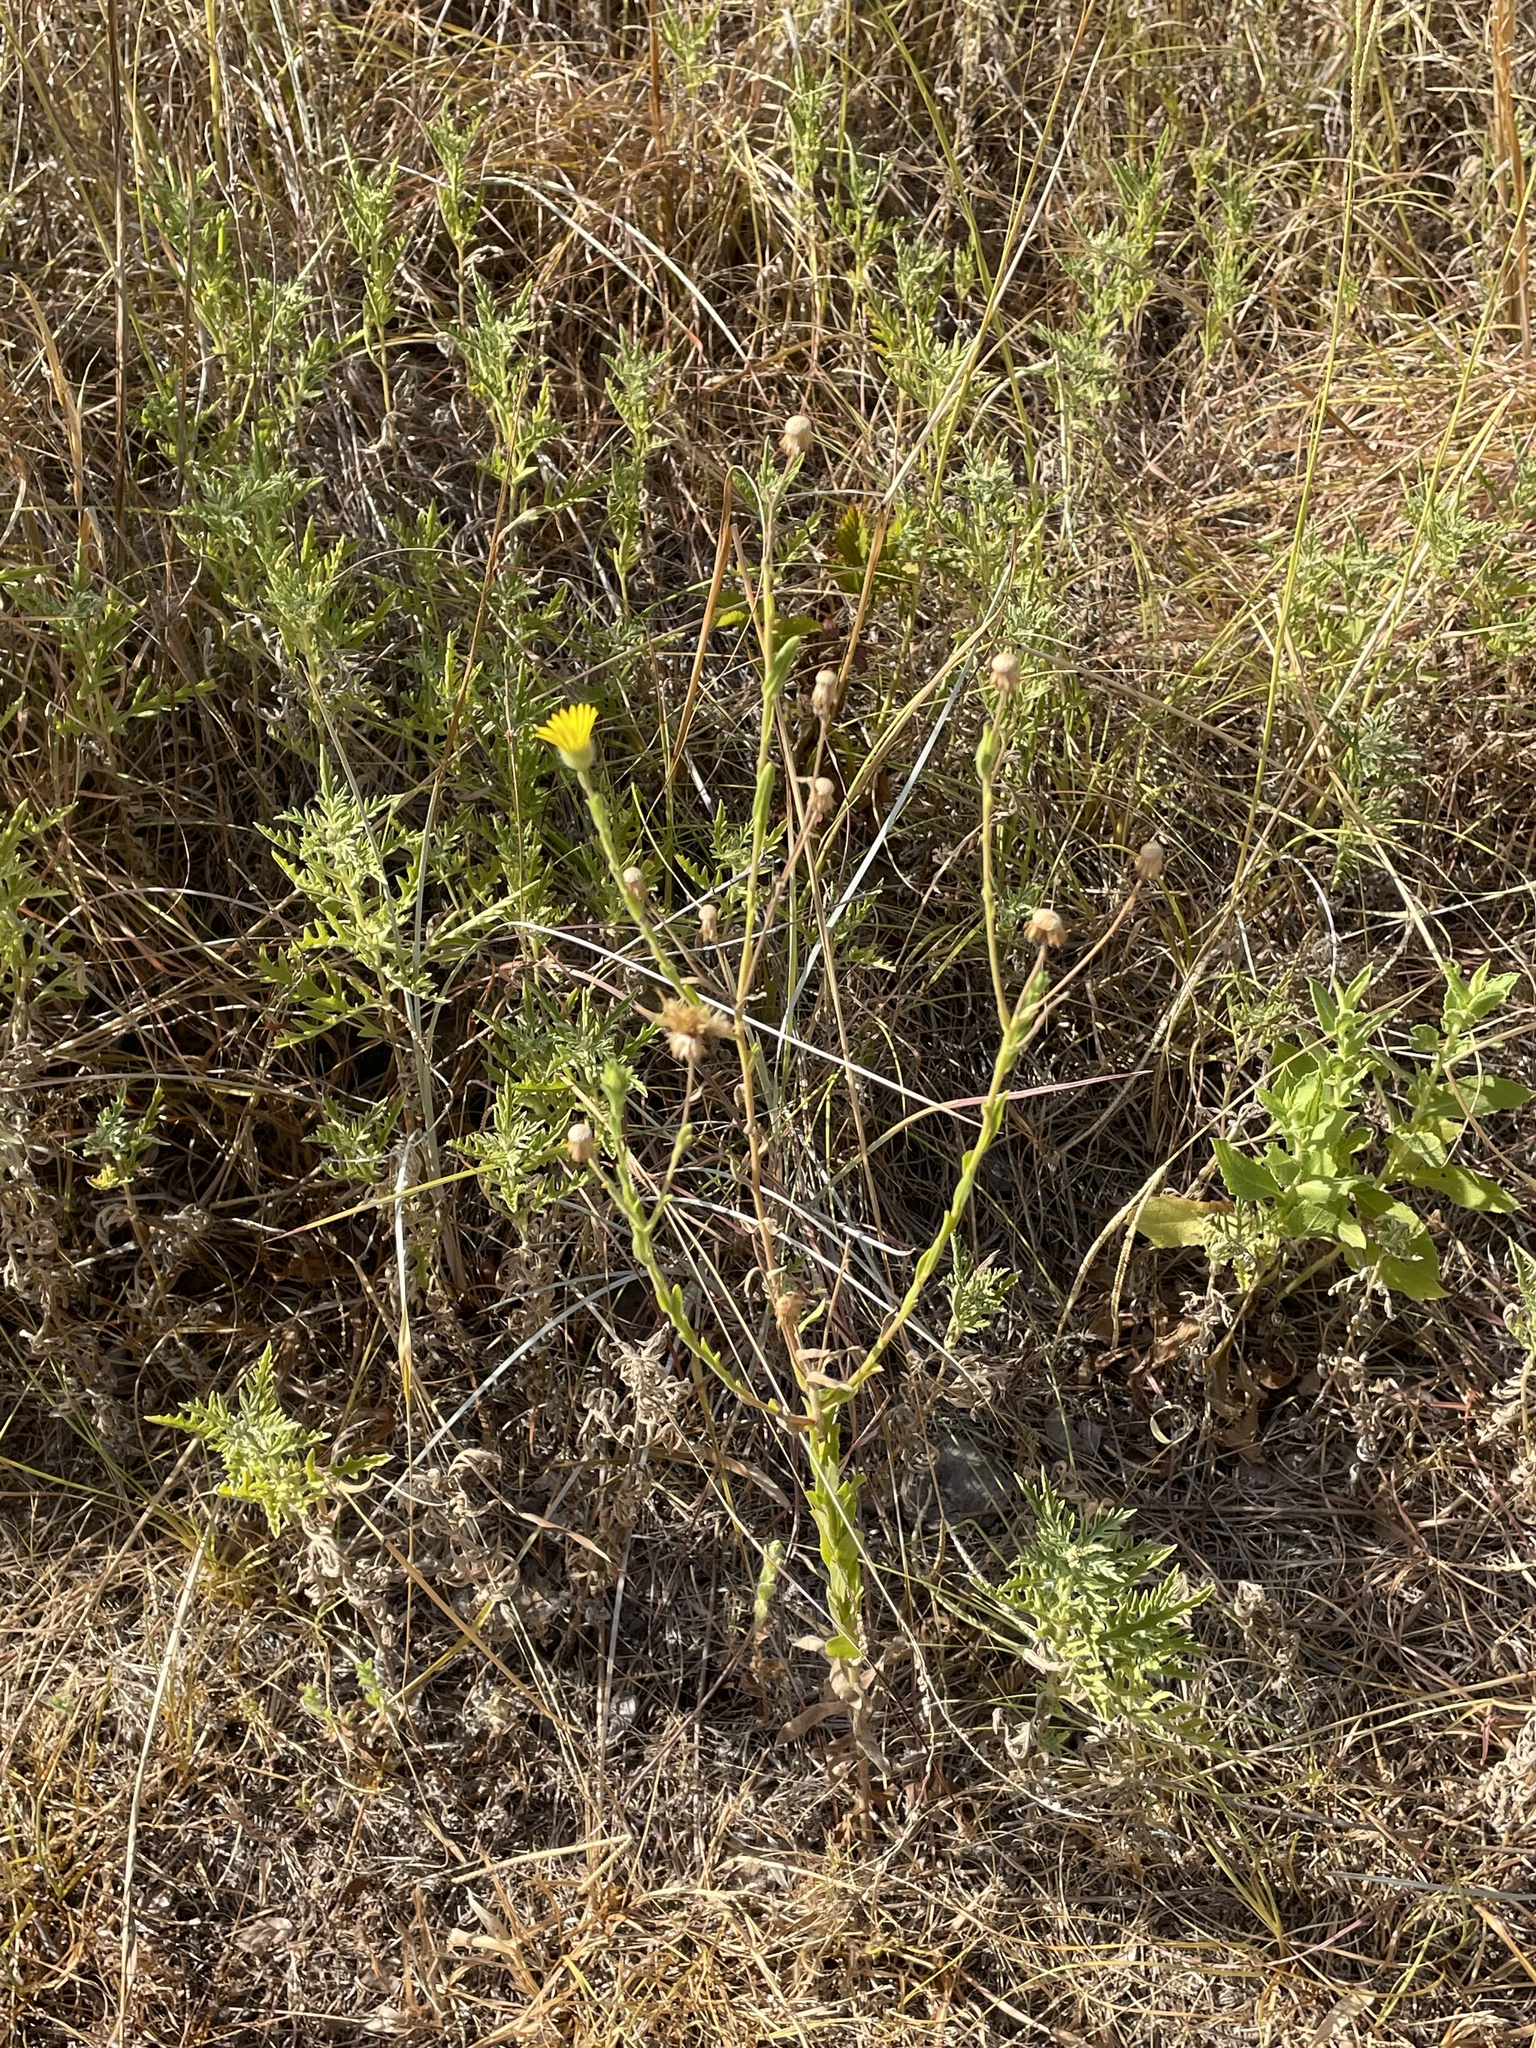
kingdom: Plantae
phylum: Tracheophyta
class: Magnoliopsida
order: Asterales
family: Asteraceae
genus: Bradburia
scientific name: Bradburia pilosa
